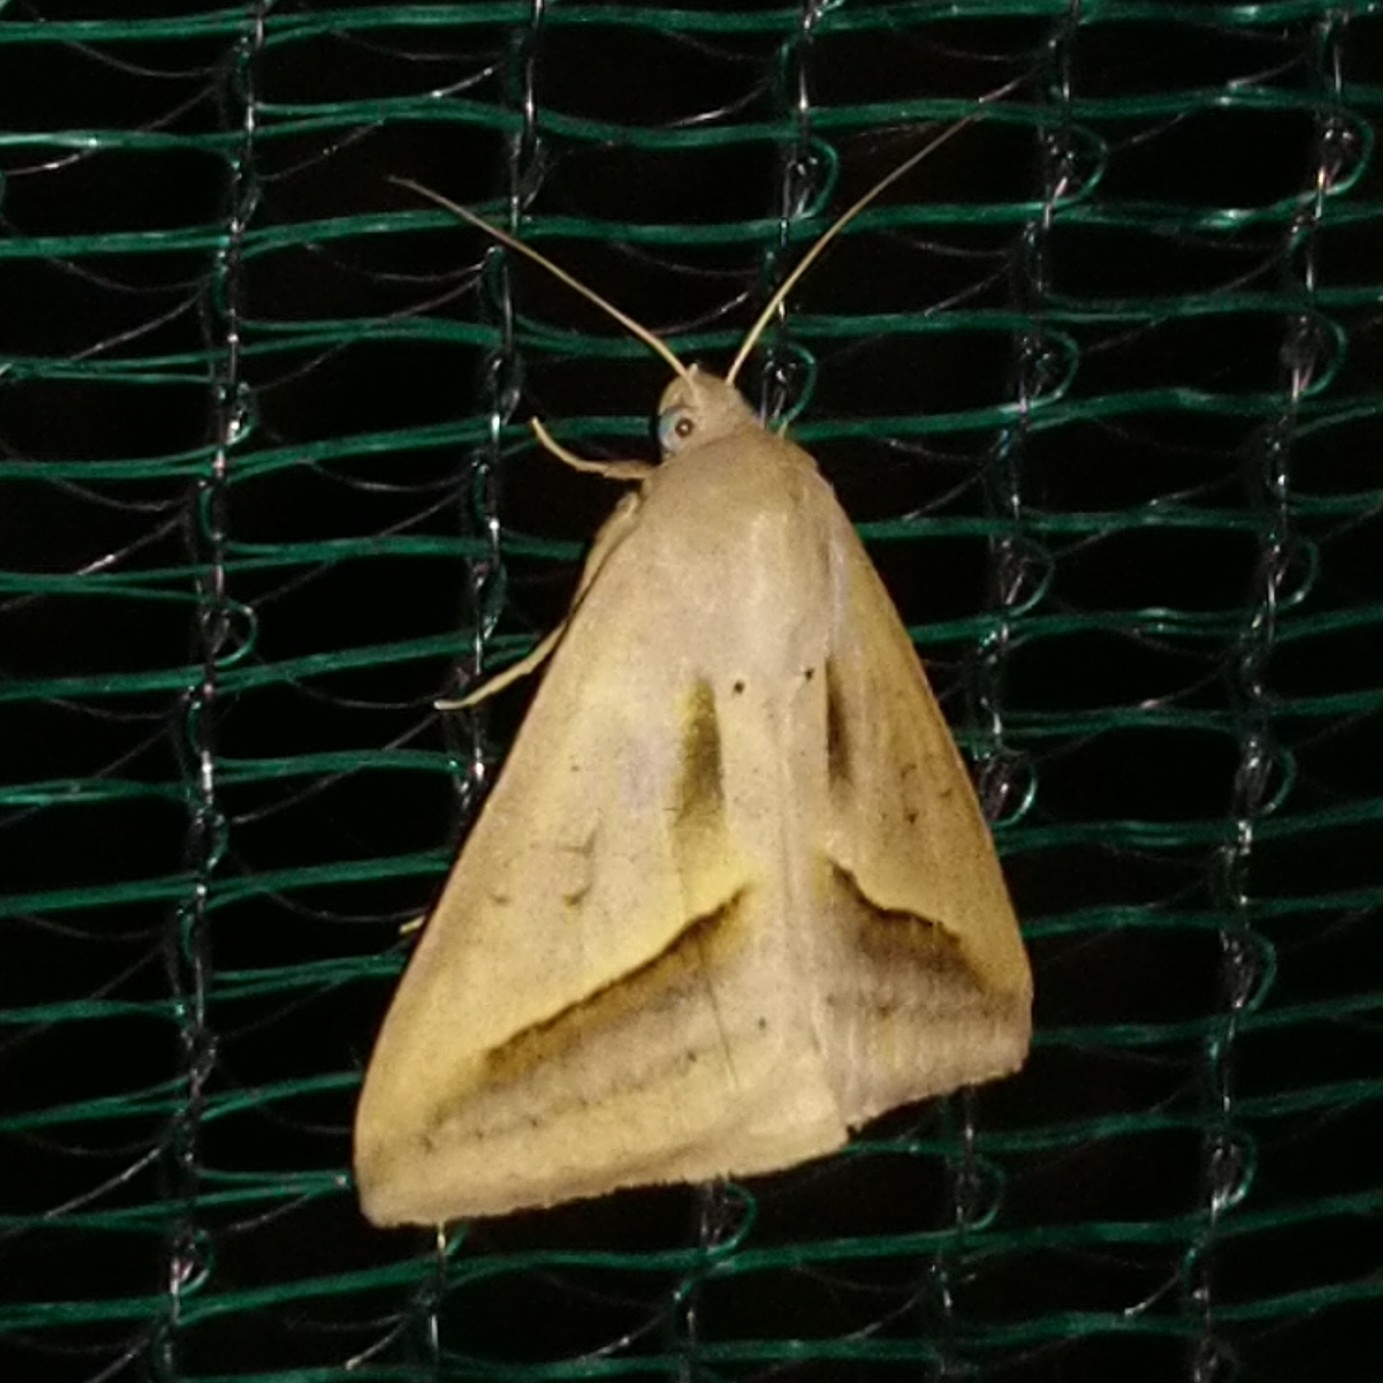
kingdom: Animalia
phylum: Arthropoda
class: Insecta
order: Lepidoptera
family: Erebidae
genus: Mocis
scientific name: Mocis proverai
